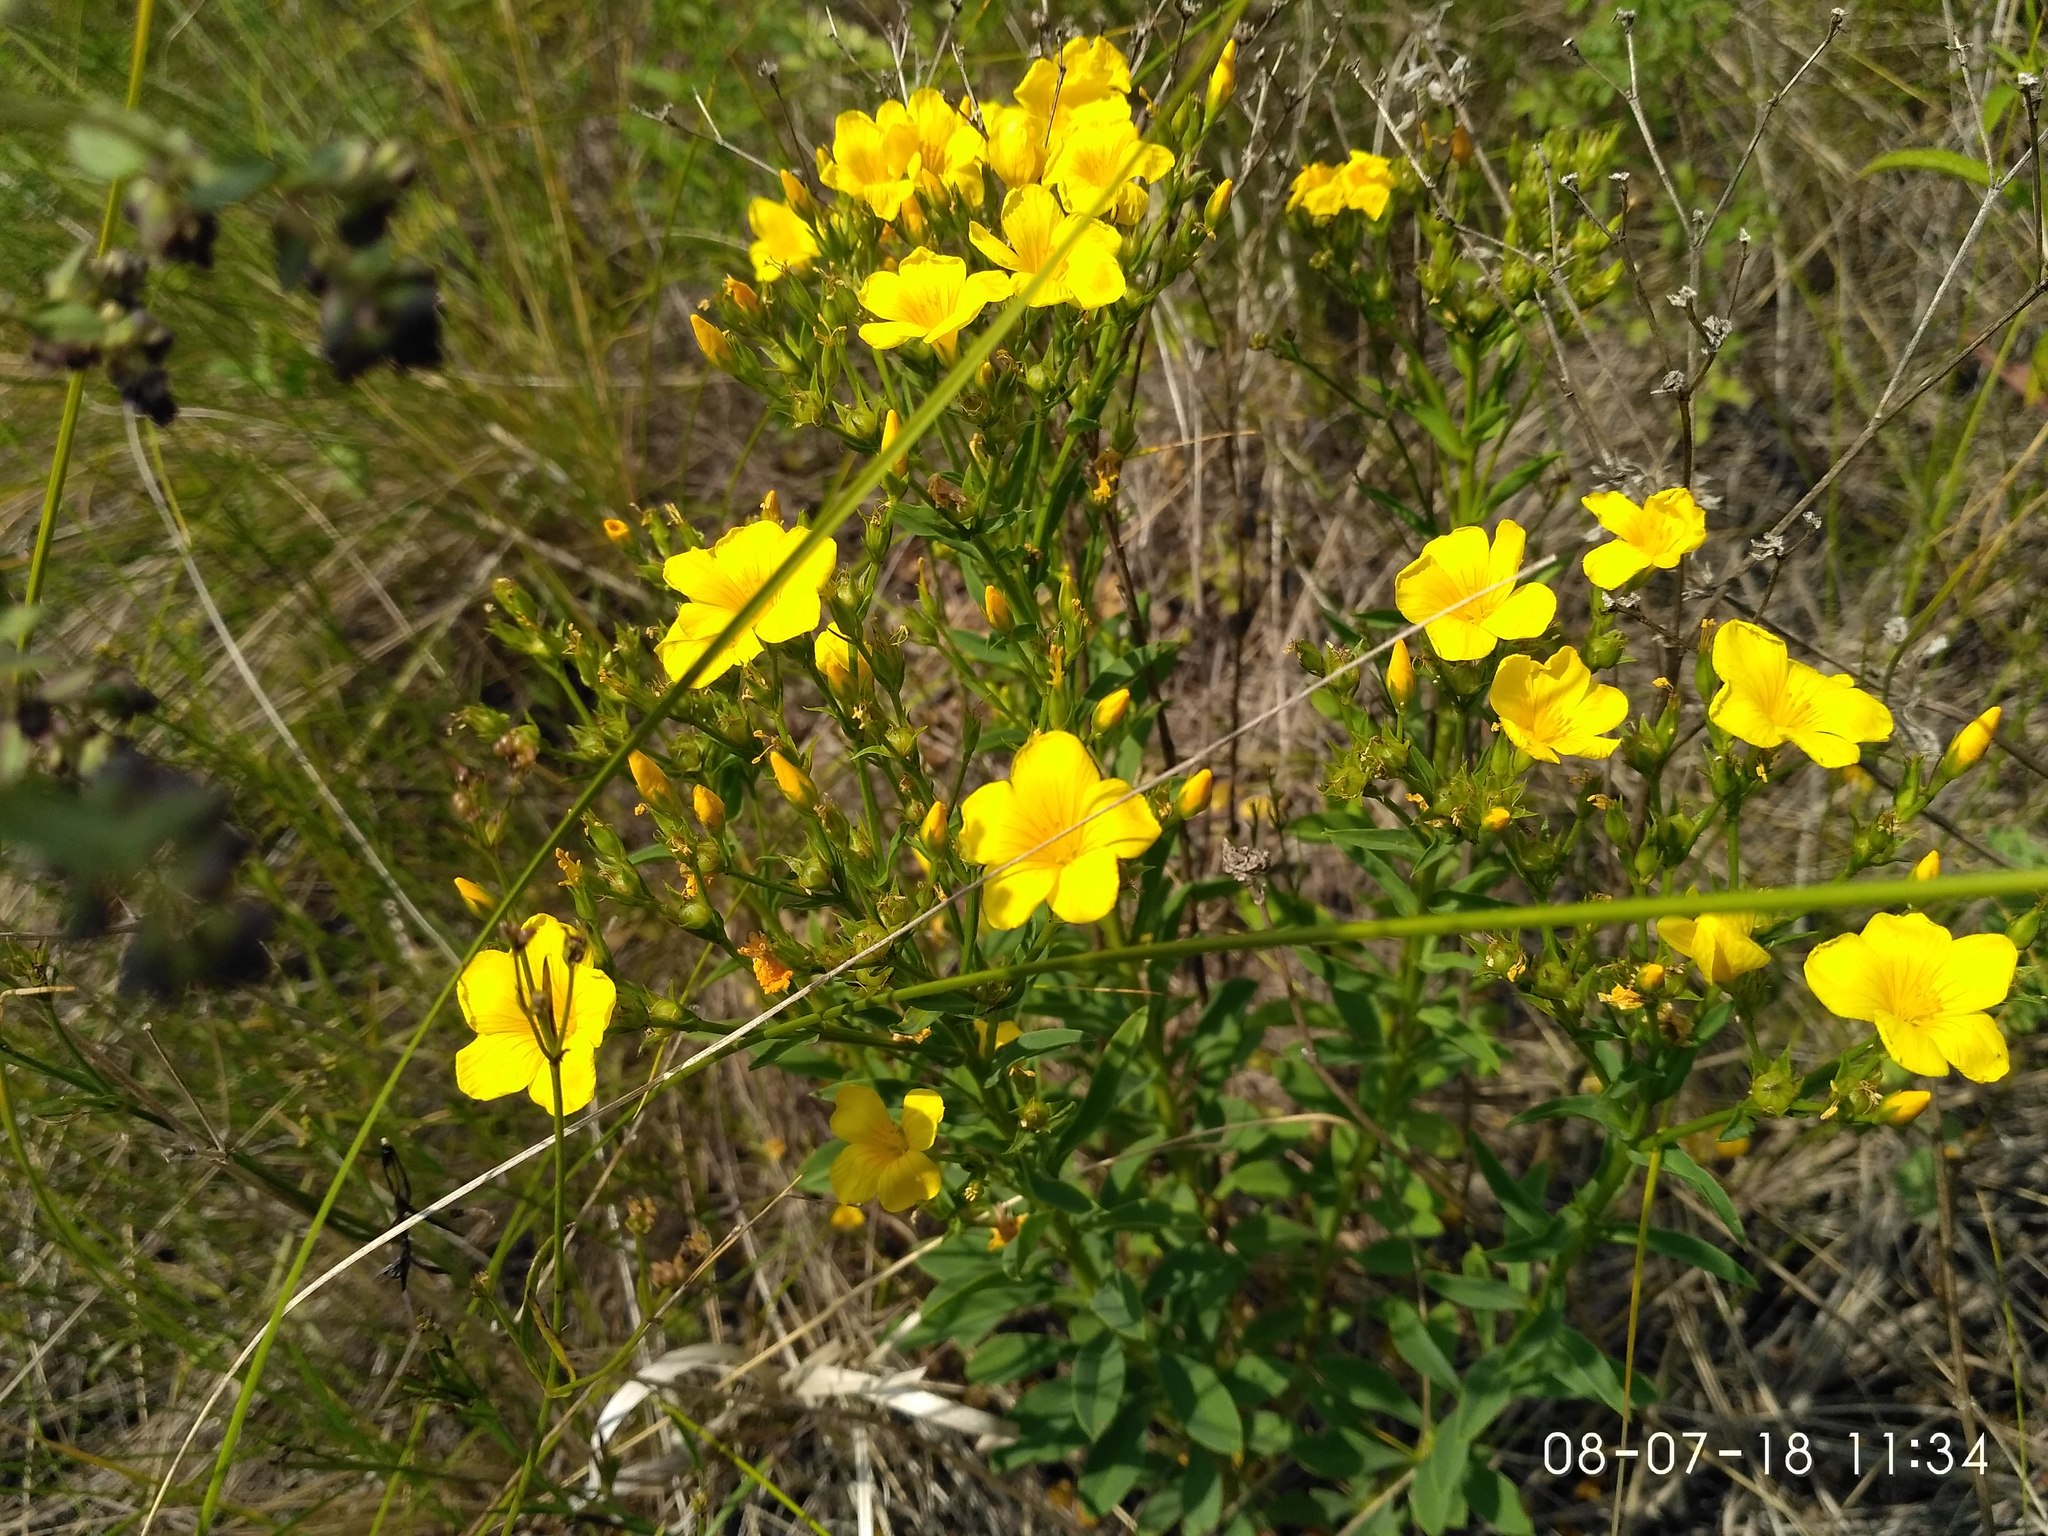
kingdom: Plantae
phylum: Tracheophyta
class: Magnoliopsida
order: Malpighiales
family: Linaceae
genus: Linum
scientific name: Linum flavum
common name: Yellow flax
